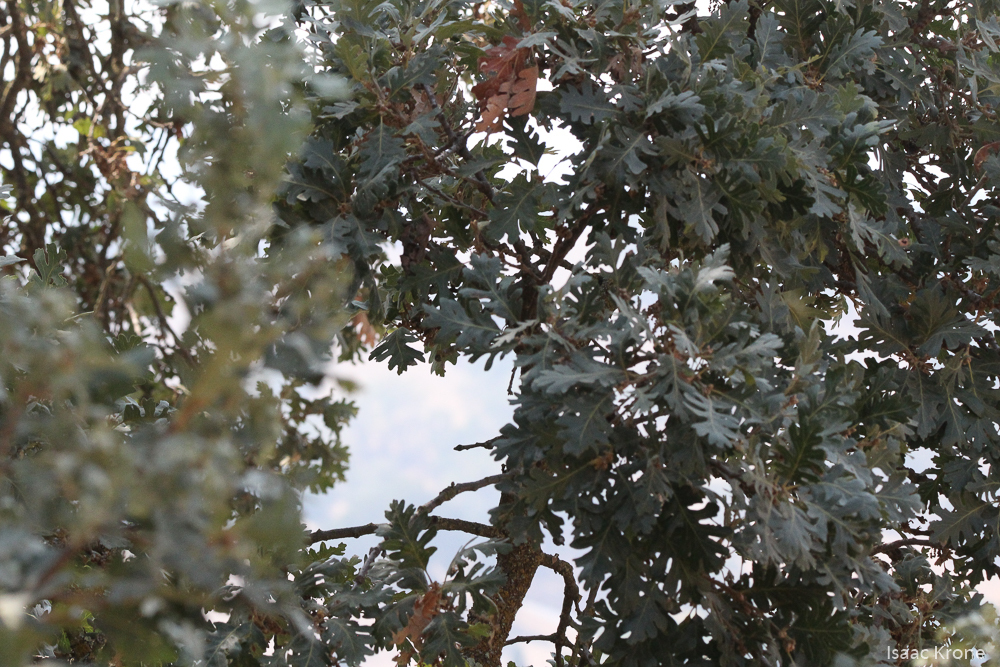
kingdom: Plantae
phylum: Tracheophyta
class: Magnoliopsida
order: Fagales
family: Fagaceae
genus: Quercus
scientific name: Quercus lobata
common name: Valley oak
